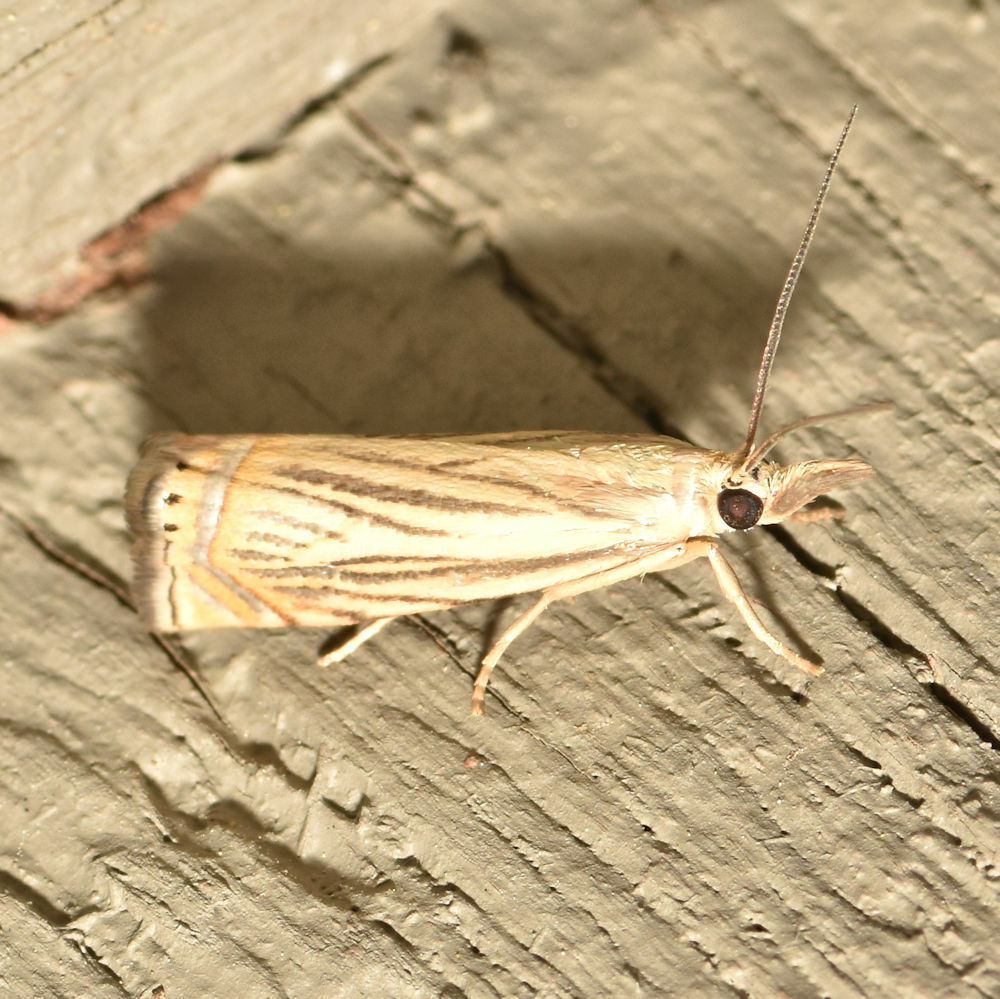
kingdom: Animalia
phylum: Arthropoda
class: Insecta
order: Lepidoptera
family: Crambidae
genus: Chrysoteuchia
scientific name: Chrysoteuchia topiarius
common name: Topiary grass-veneer
